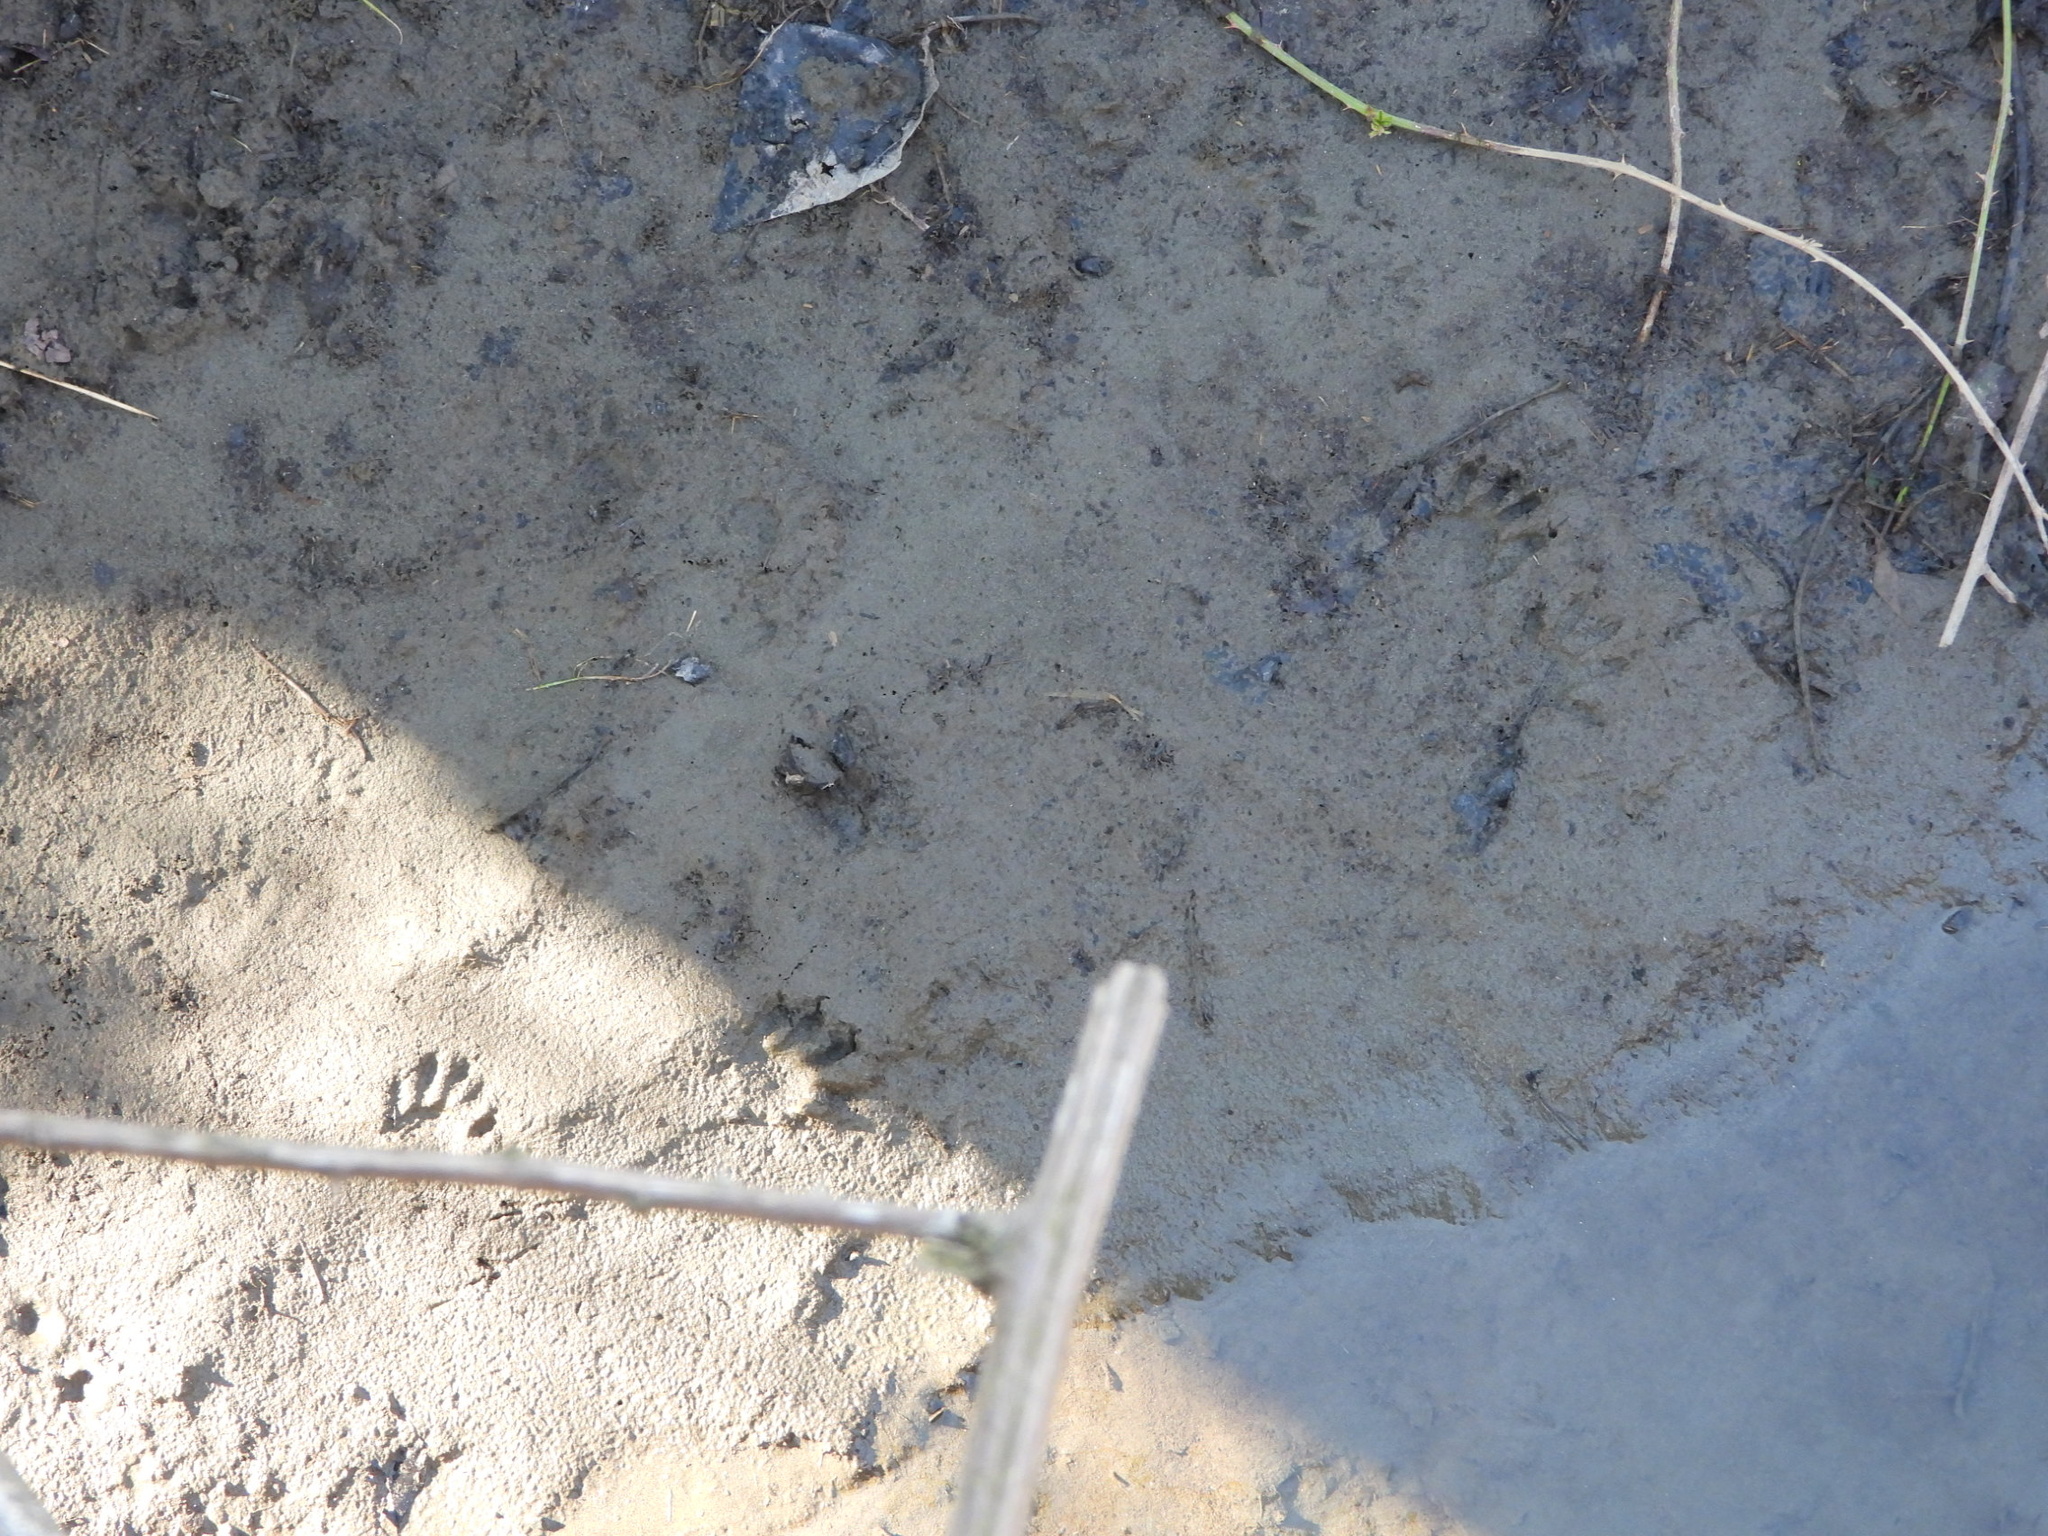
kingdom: Animalia
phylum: Chordata
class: Mammalia
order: Carnivora
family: Procyonidae
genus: Procyon
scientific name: Procyon lotor
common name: Raccoon
